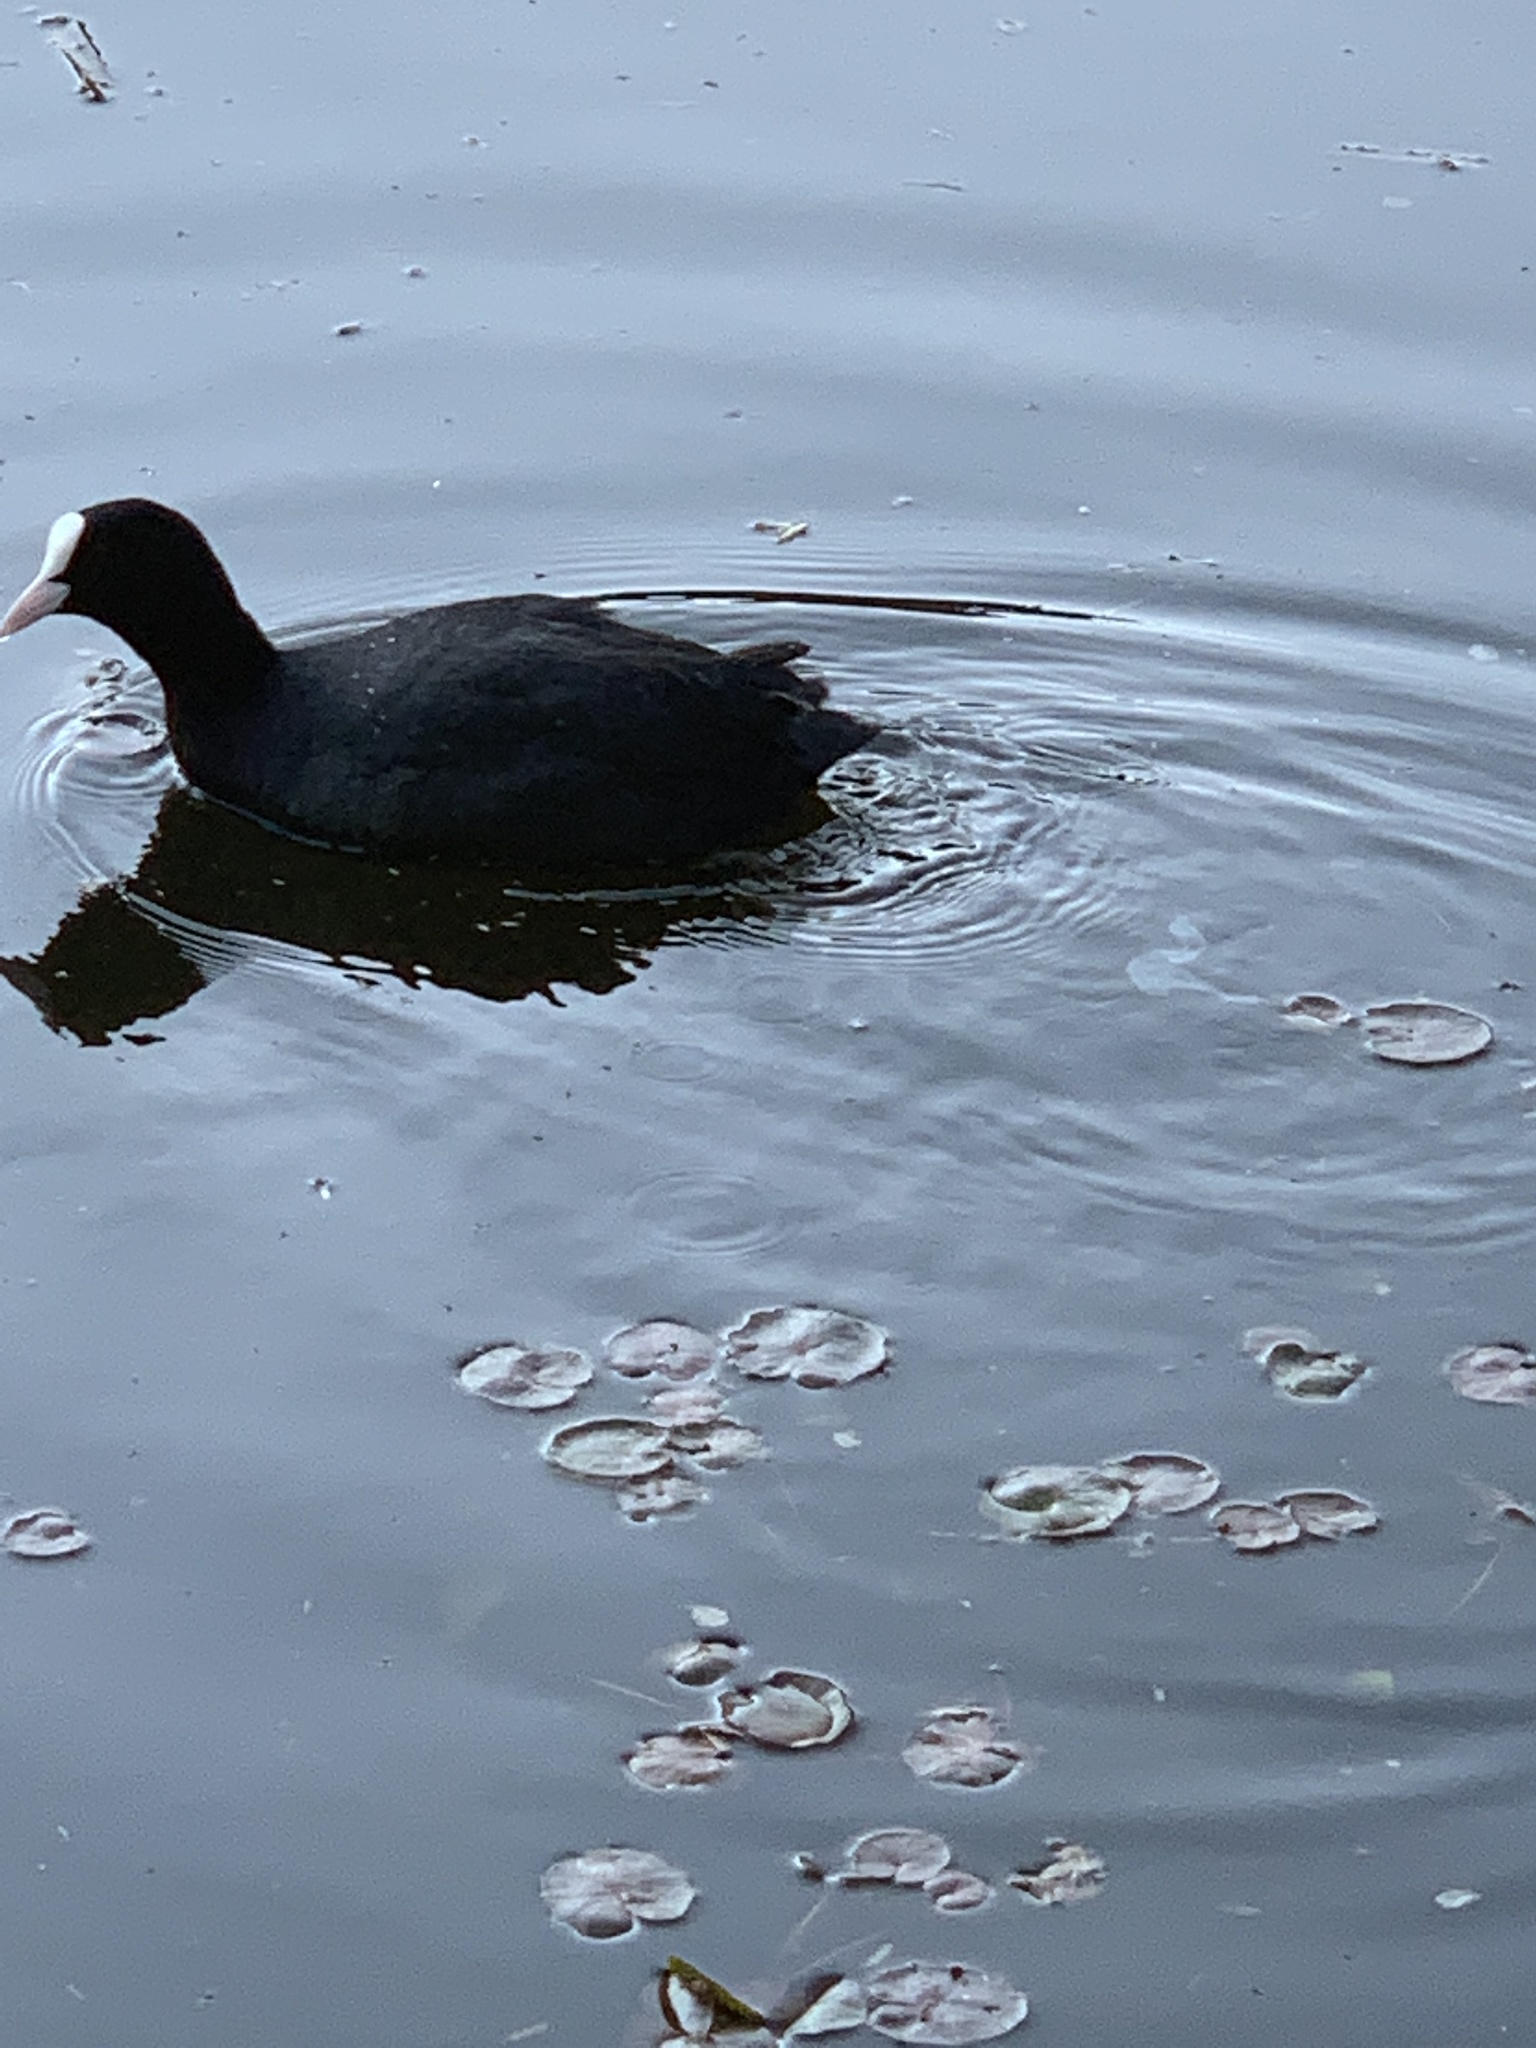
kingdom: Animalia
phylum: Chordata
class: Aves
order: Gruiformes
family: Rallidae
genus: Fulica
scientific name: Fulica atra
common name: Eurasian coot
